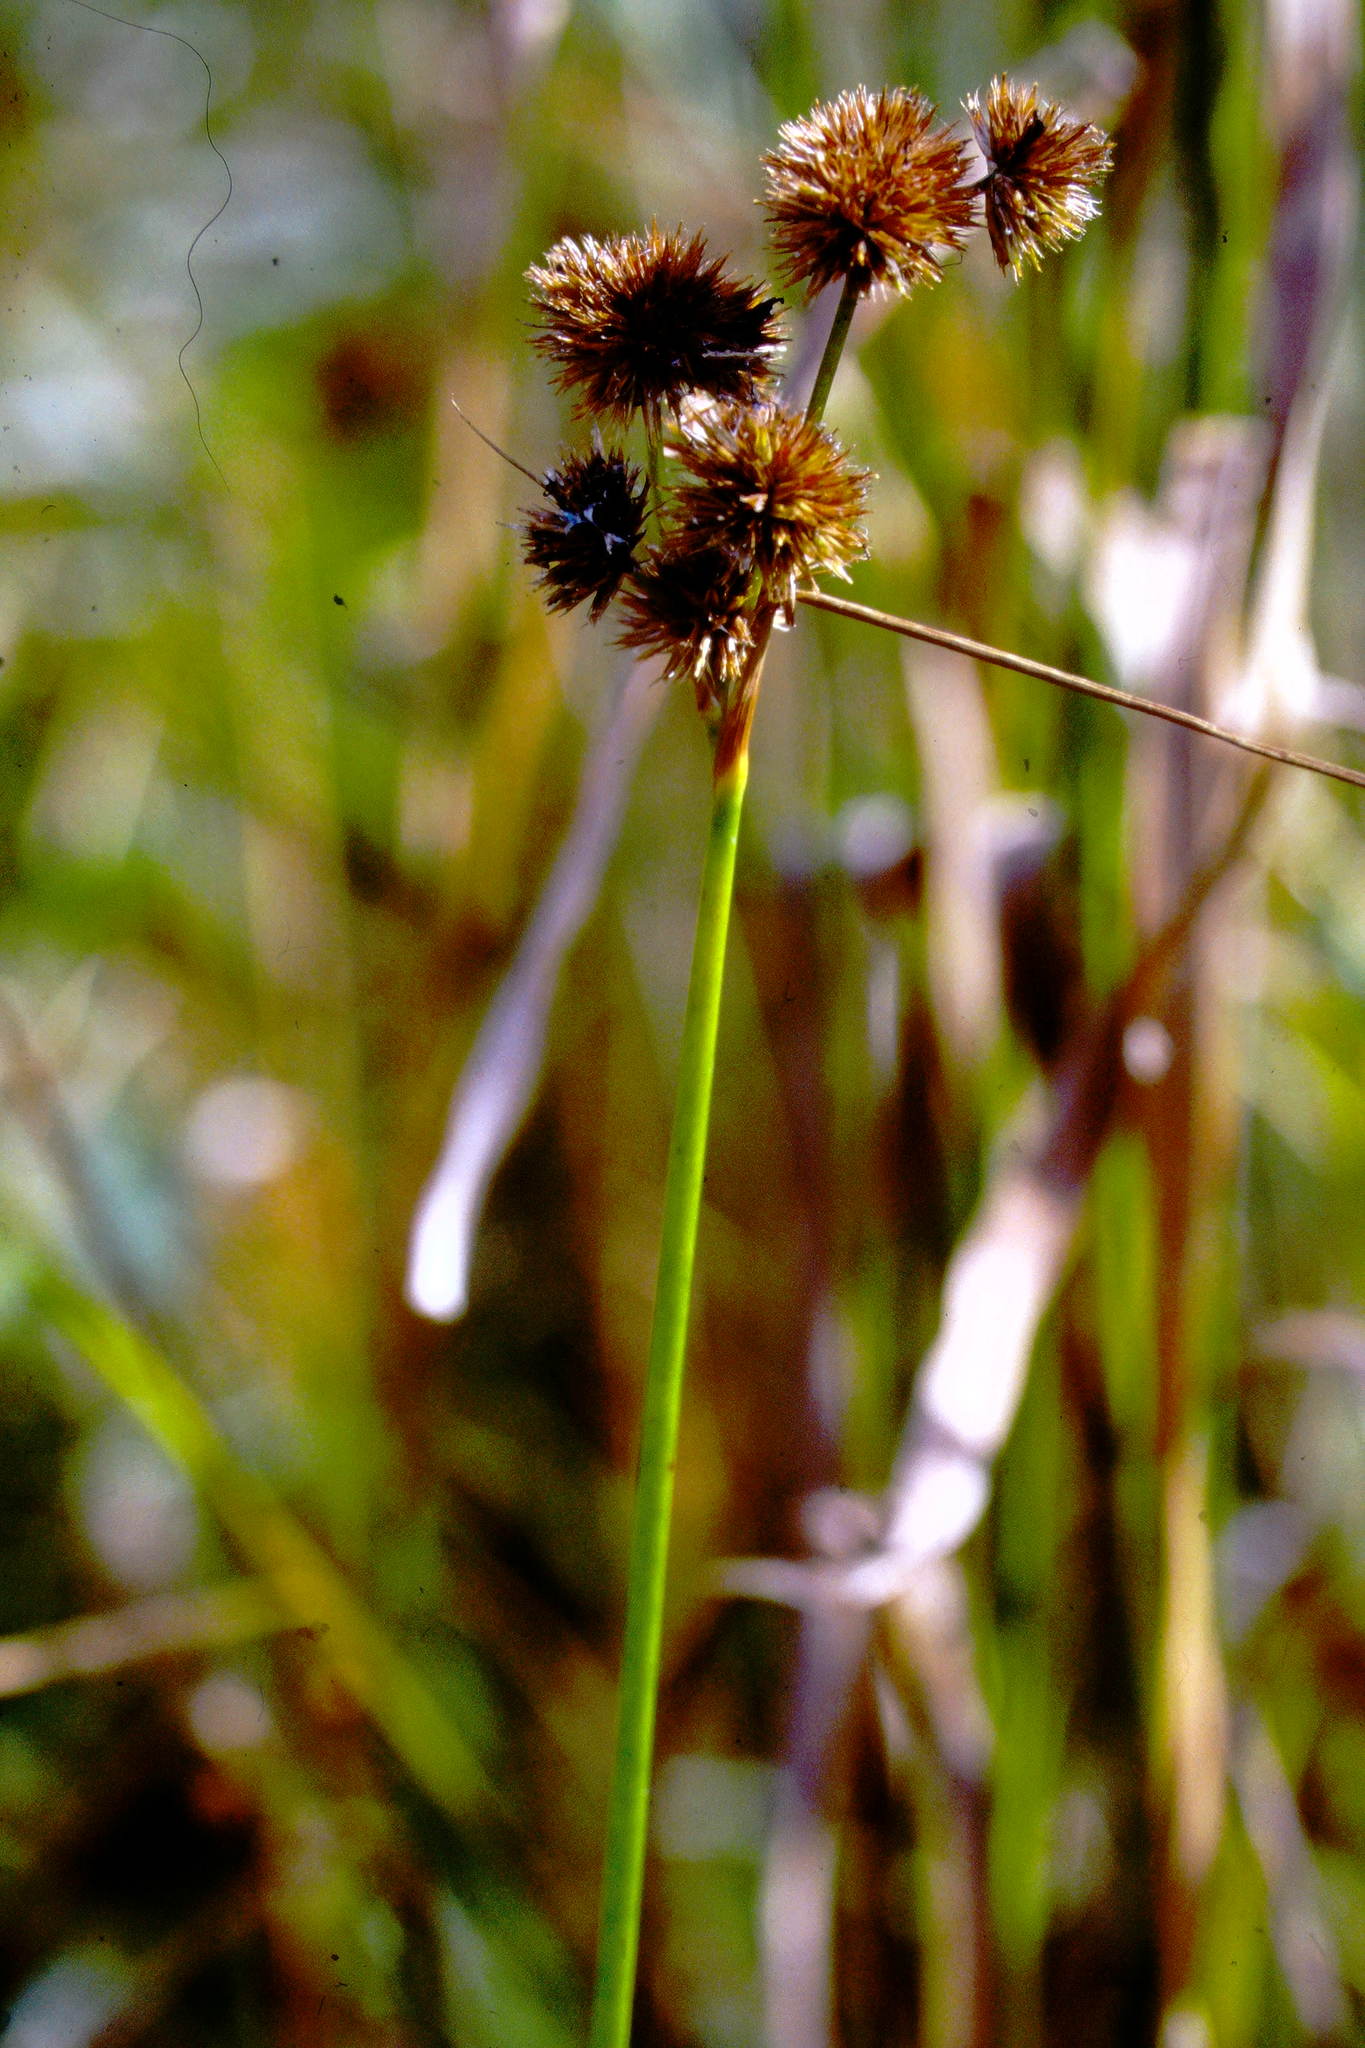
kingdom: Plantae
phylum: Tracheophyta
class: Liliopsida
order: Poales
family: Juncaceae
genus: Juncus
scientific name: Juncus torreyi
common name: Torrey's rush
